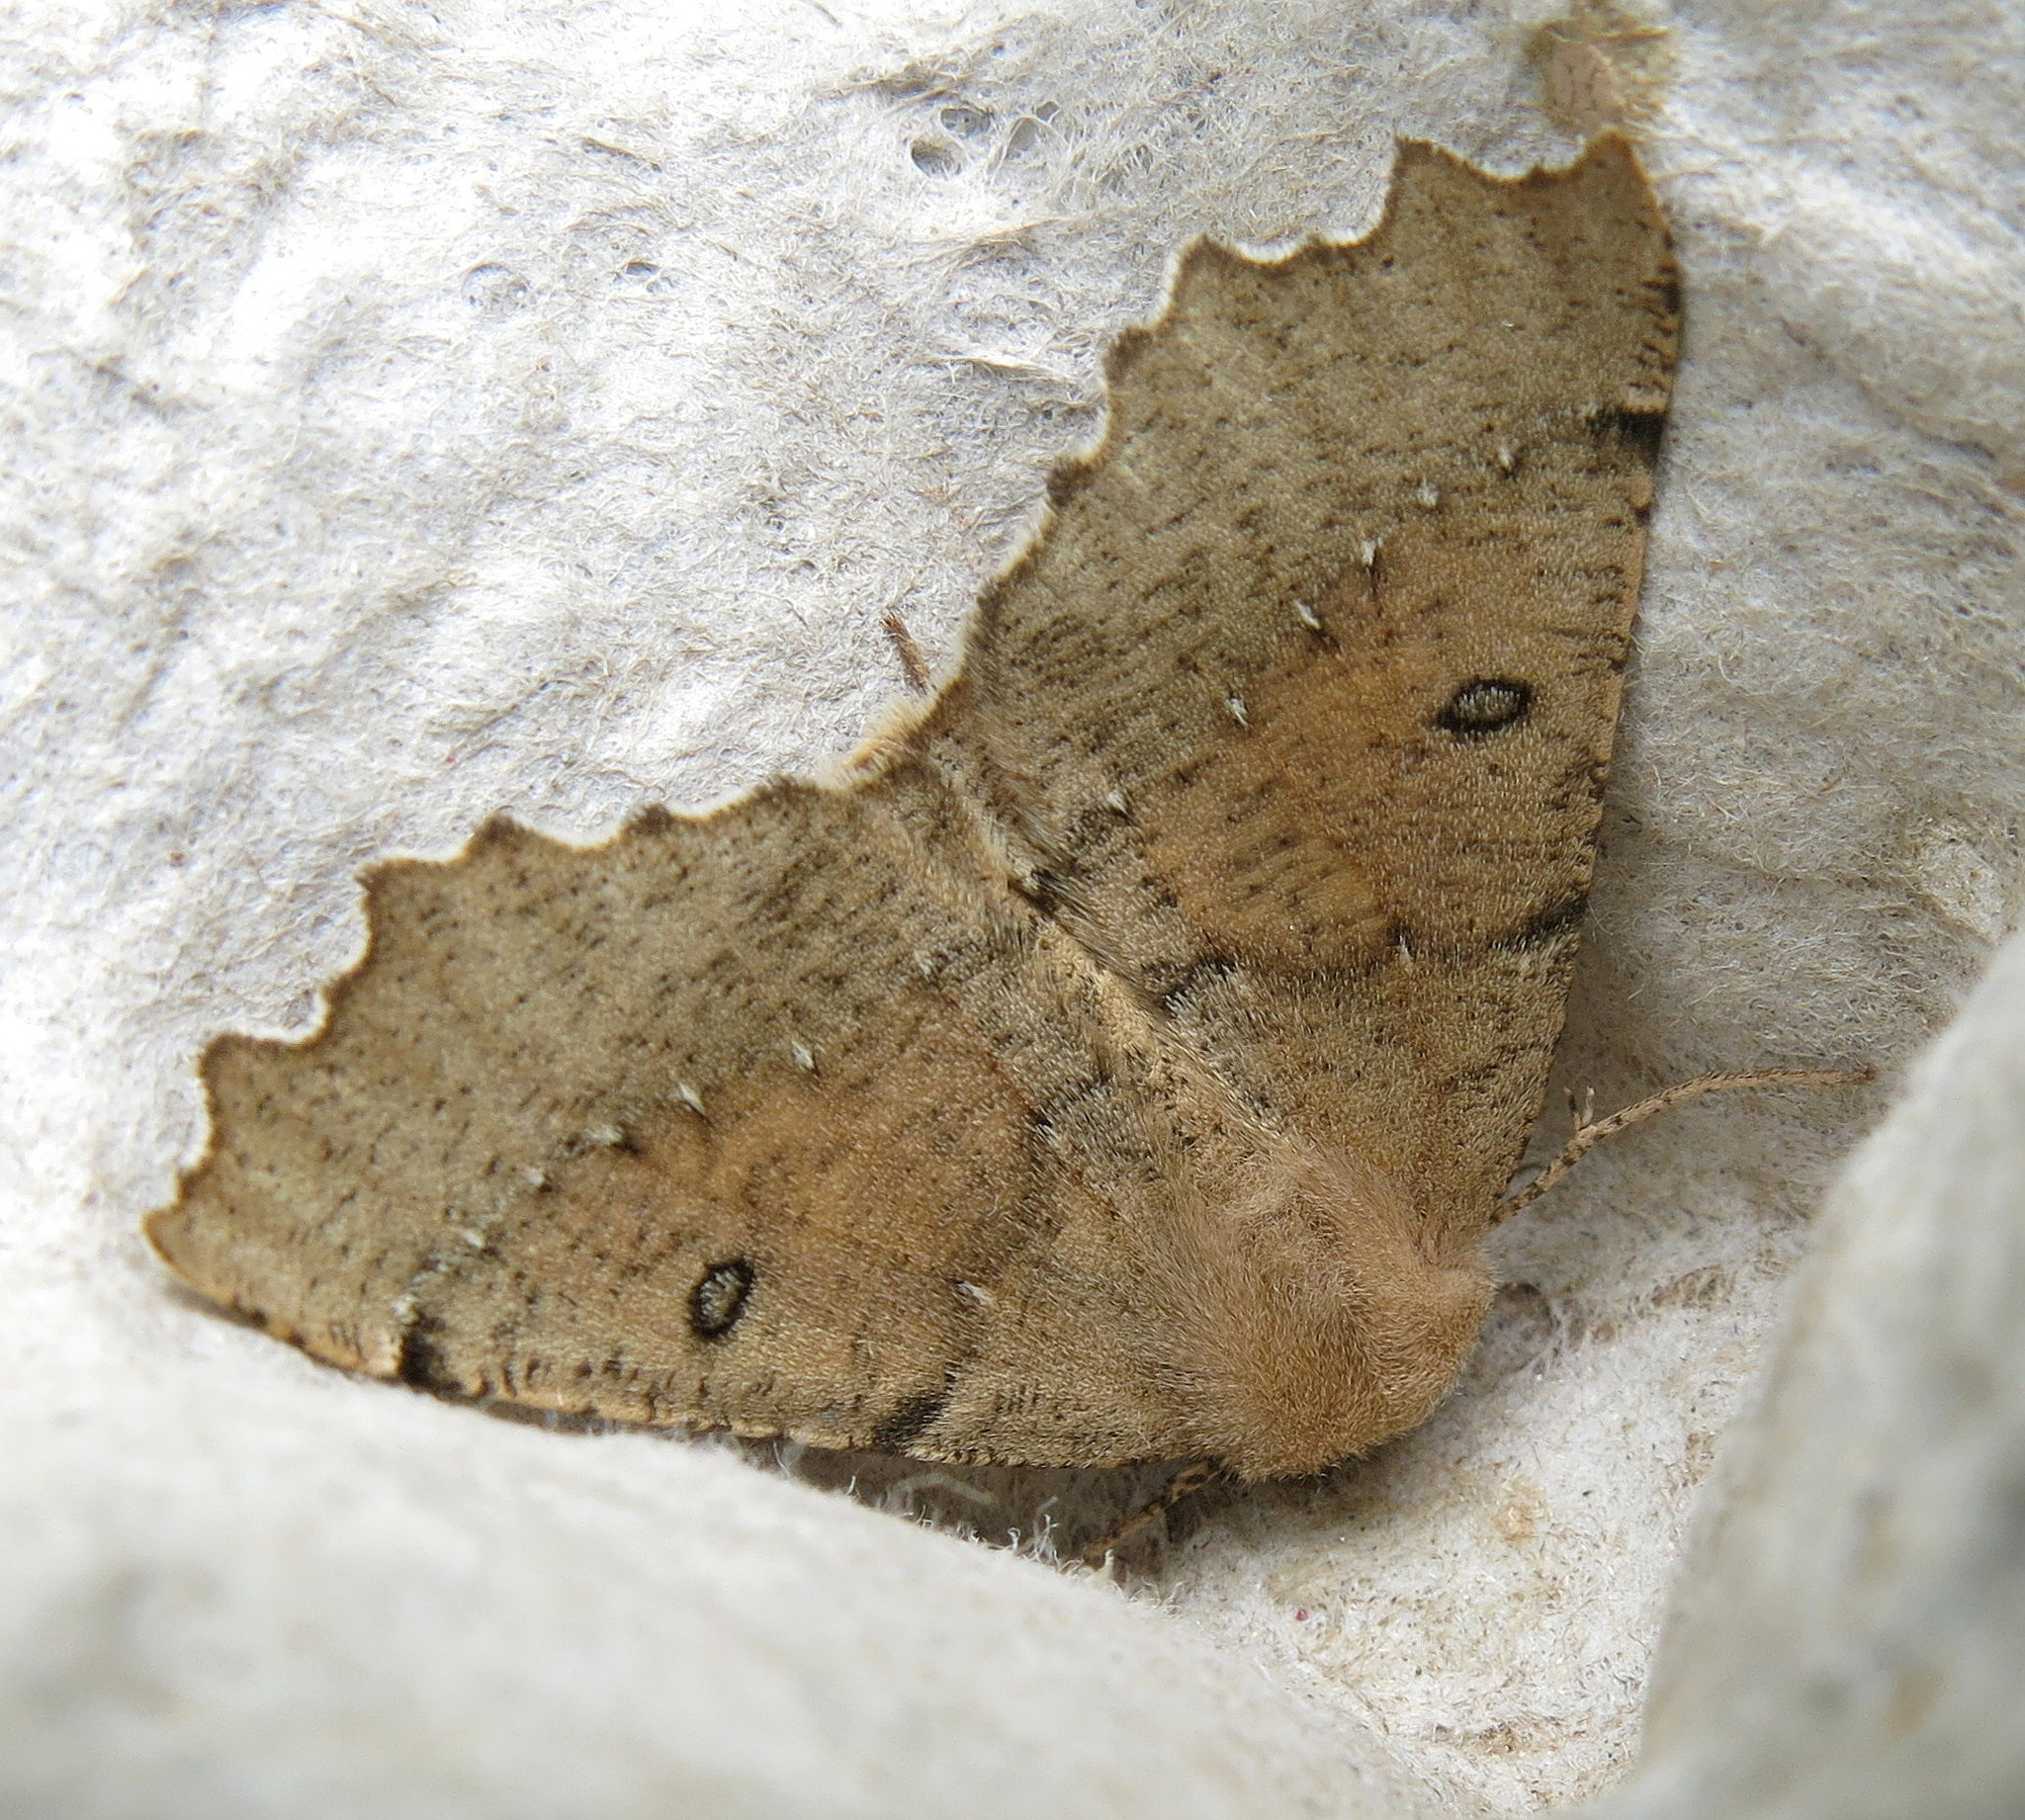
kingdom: Animalia
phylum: Arthropoda
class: Insecta
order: Lepidoptera
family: Geometridae
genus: Odontopera
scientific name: Odontopera bidentata
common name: Scalloped hazel
